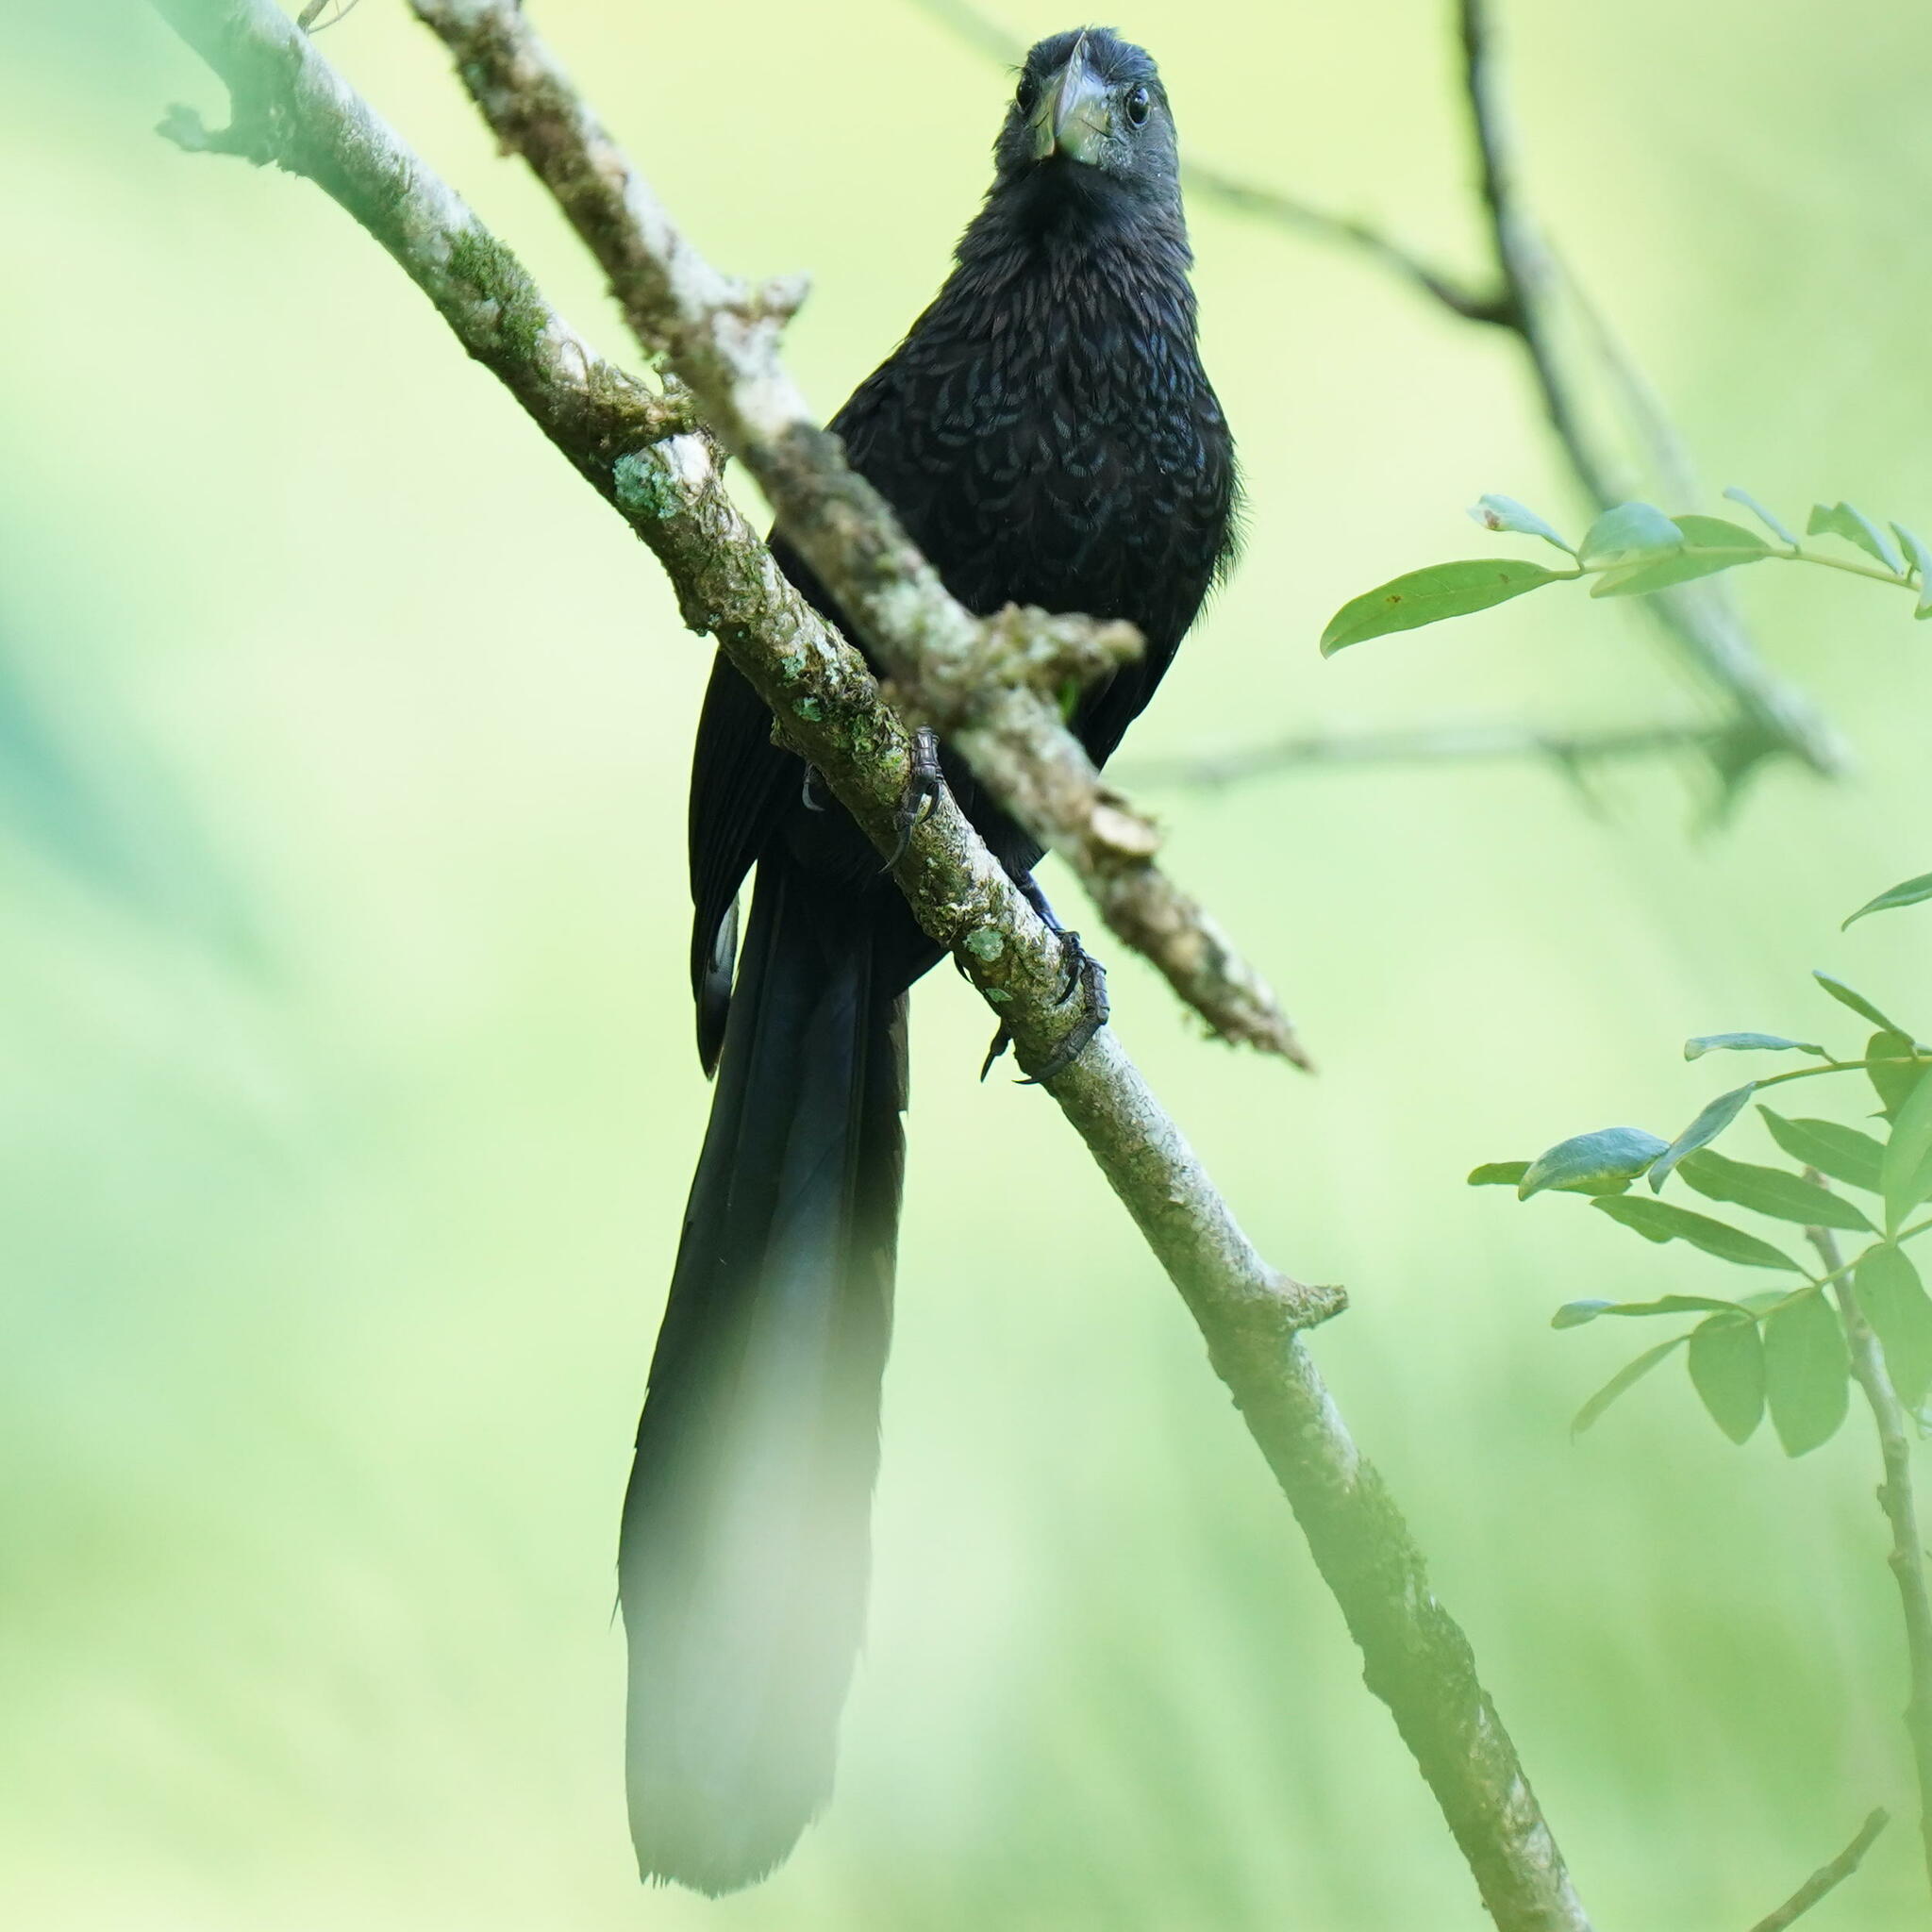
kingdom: Animalia
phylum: Chordata
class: Aves
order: Cuculiformes
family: Cuculidae
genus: Crotophaga
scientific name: Crotophaga ani
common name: Smooth-billed ani
